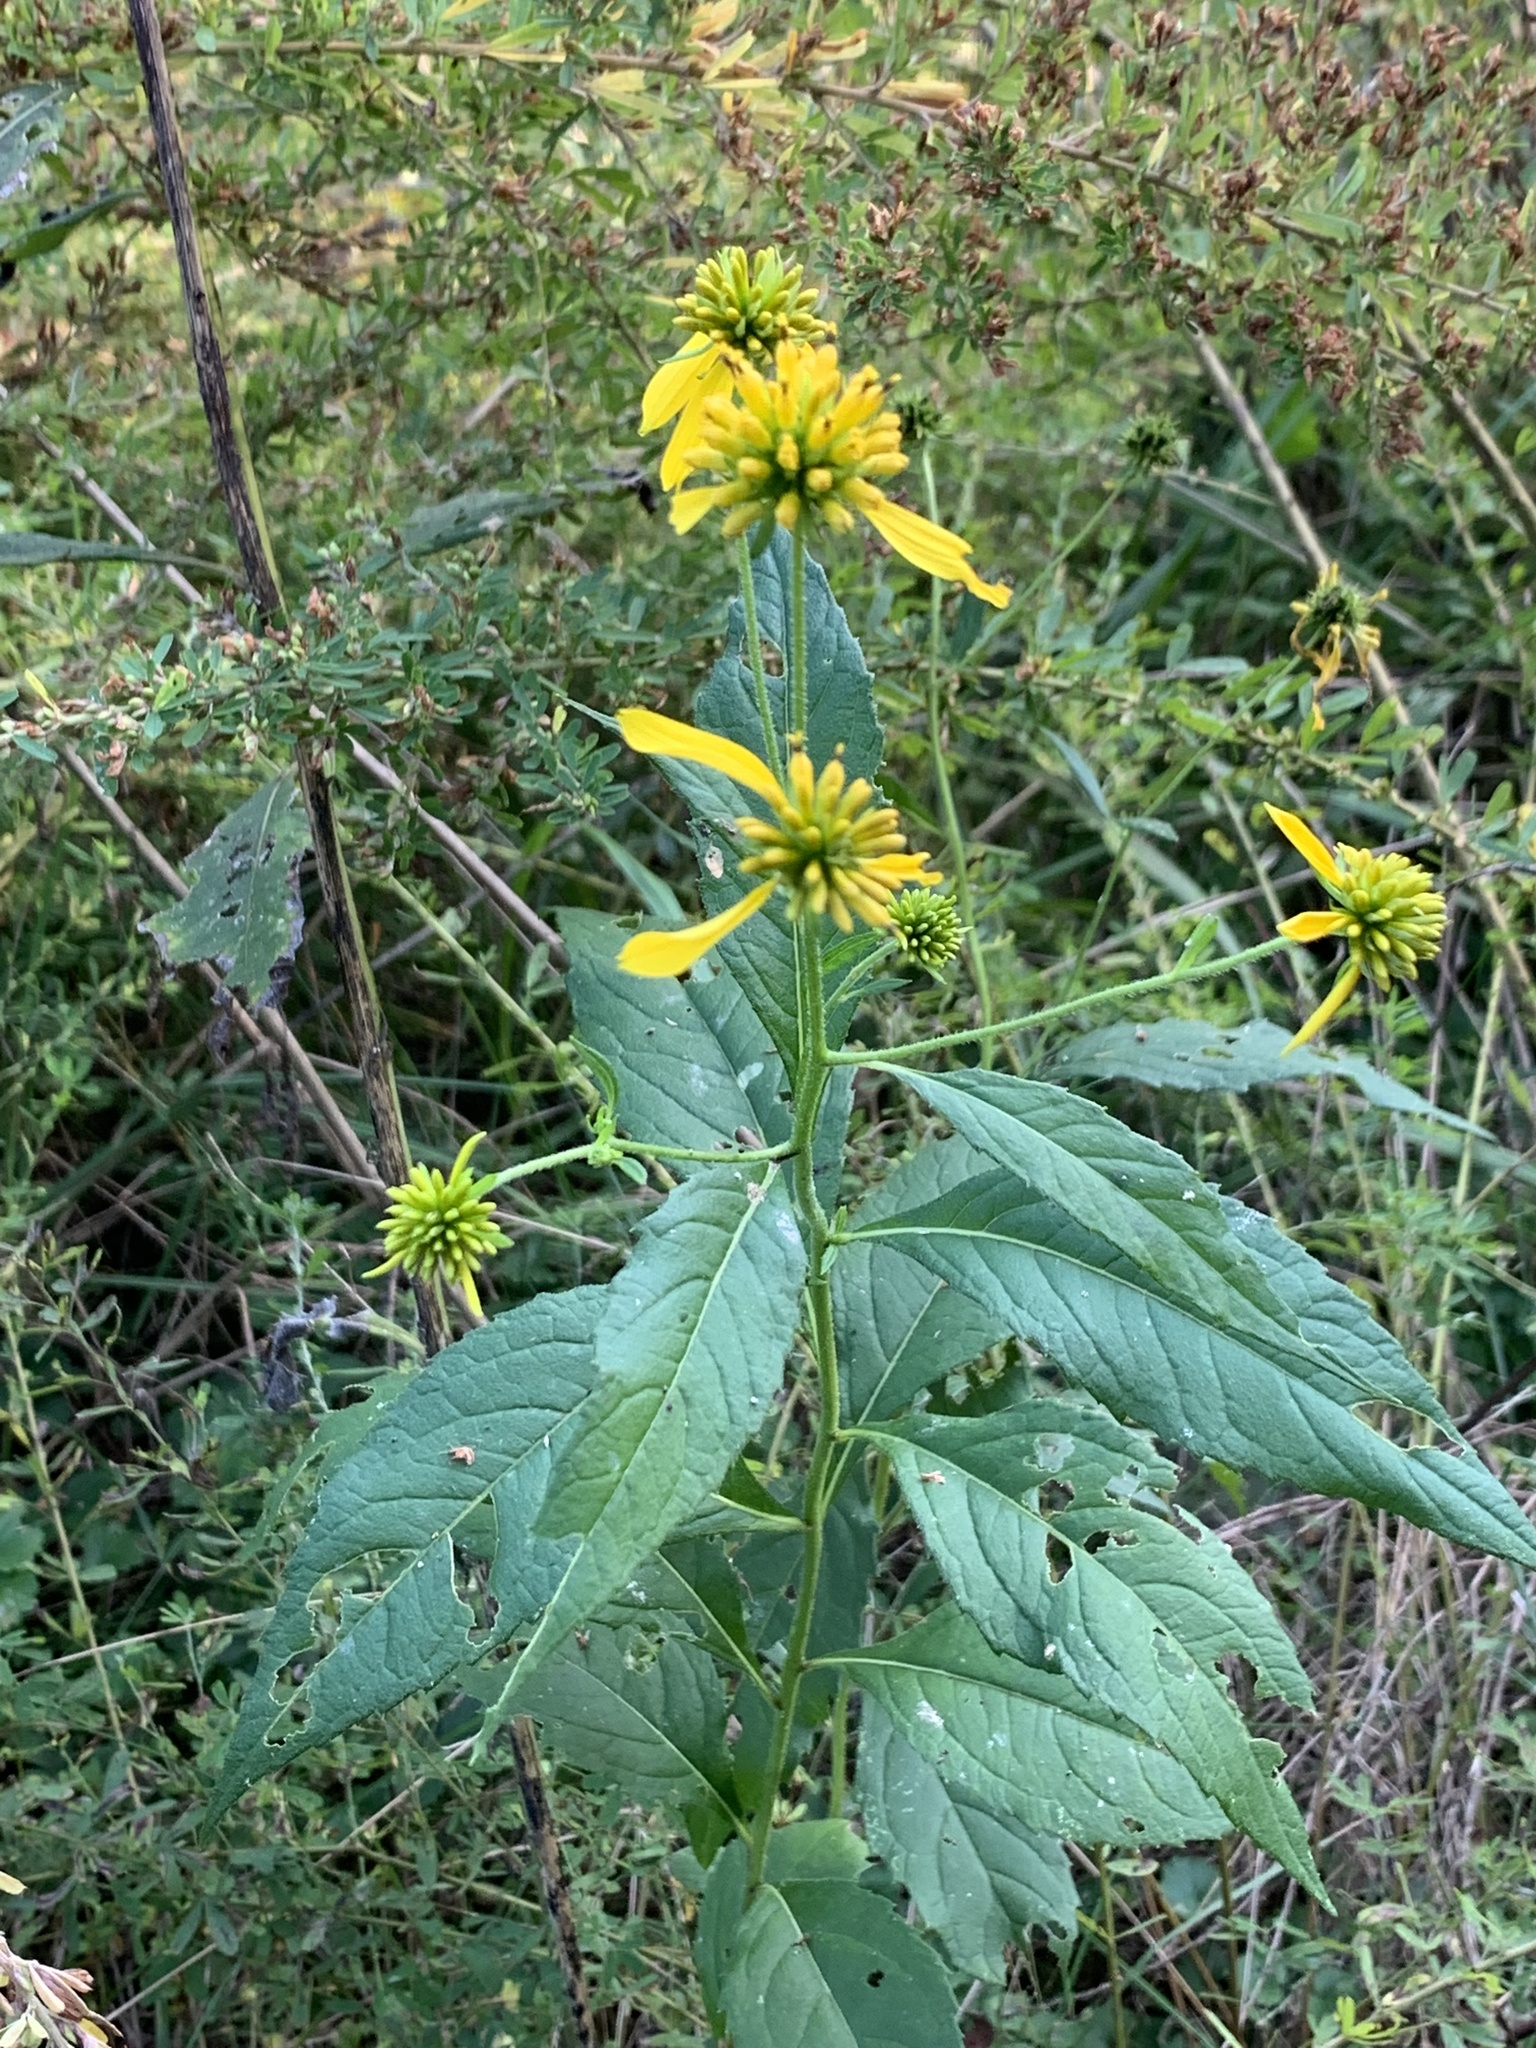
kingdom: Plantae
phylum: Tracheophyta
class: Magnoliopsida
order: Asterales
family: Asteraceae
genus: Verbesina
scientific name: Verbesina alternifolia
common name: Wingstem
